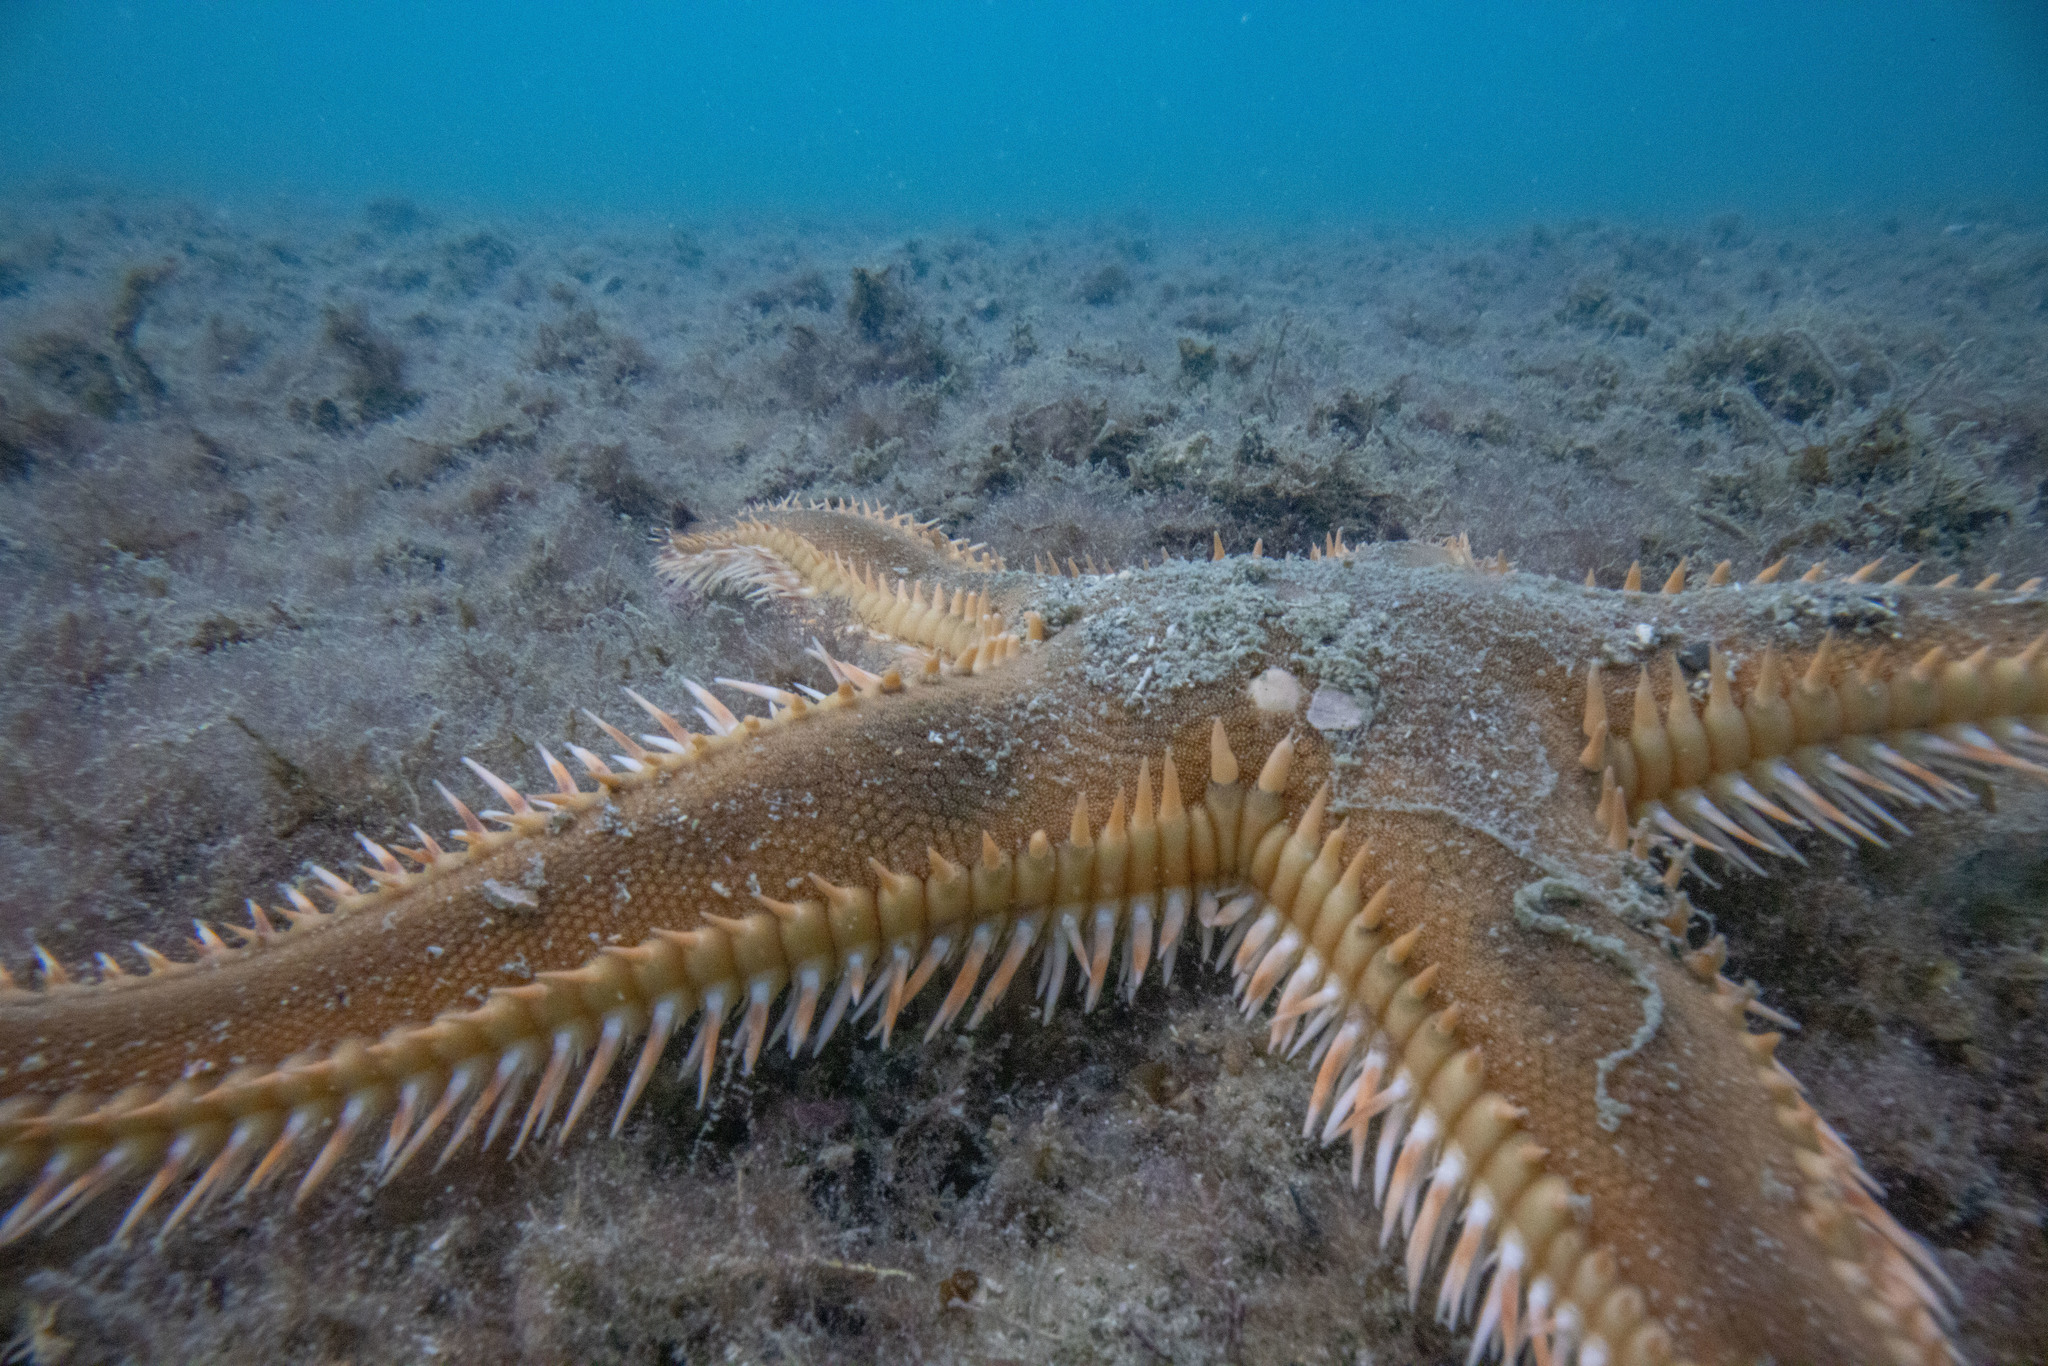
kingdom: Animalia
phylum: Echinodermata
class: Asteroidea
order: Paxillosida
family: Astropectinidae
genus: Astropecten
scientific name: Astropecten polyacanthus
